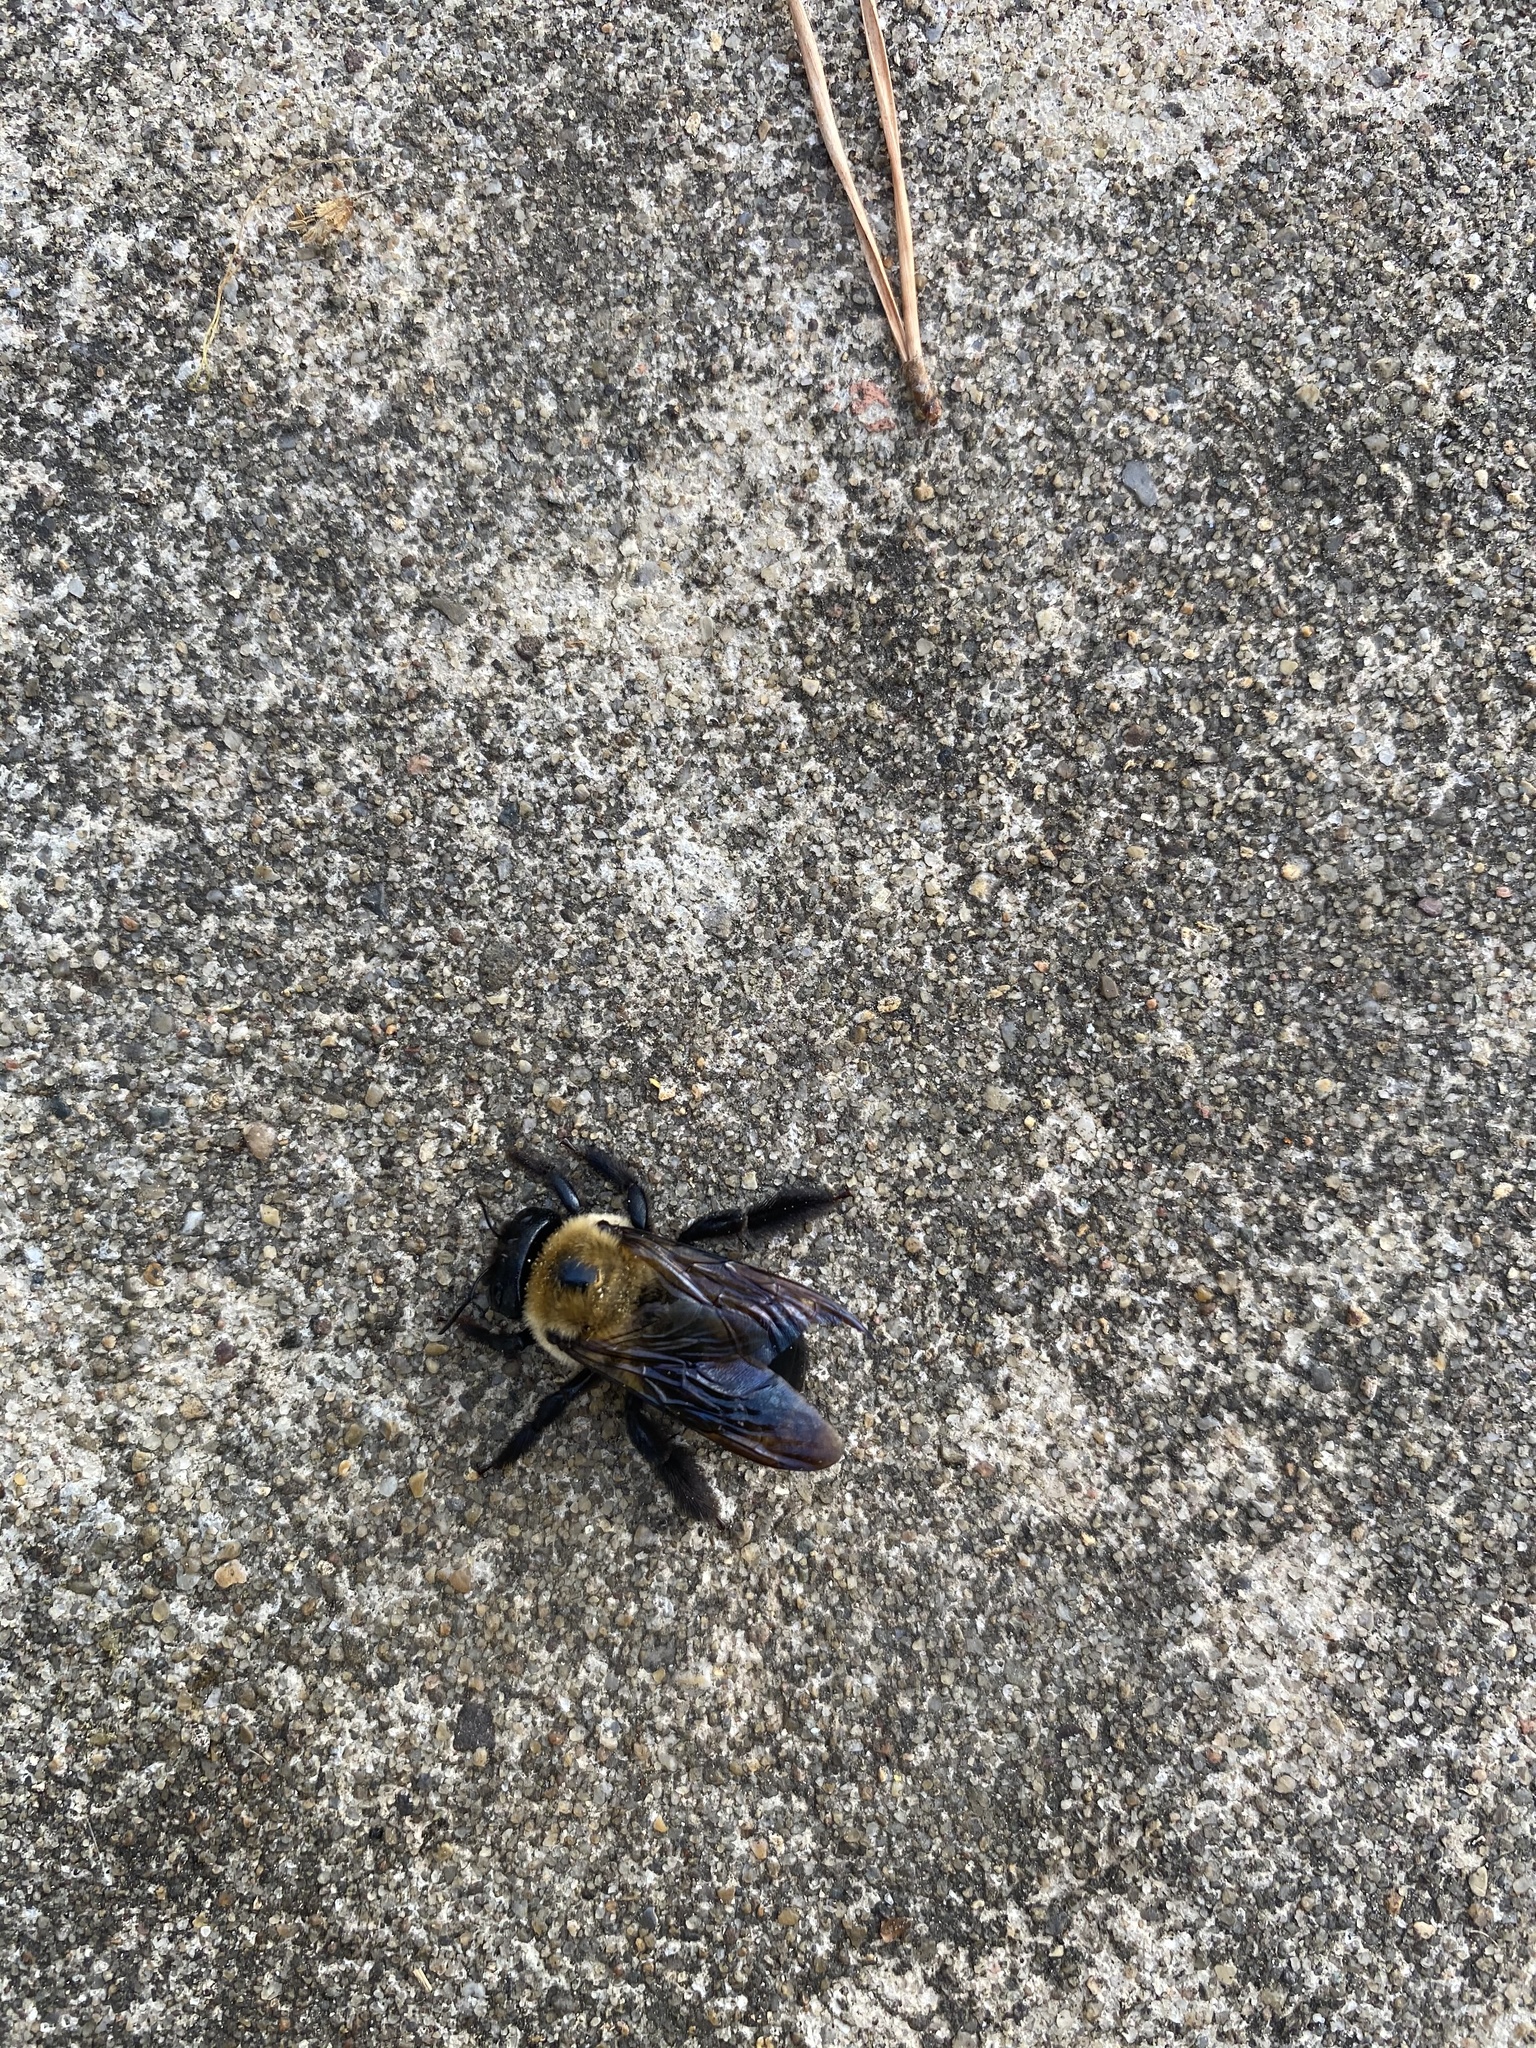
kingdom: Animalia
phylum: Arthropoda
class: Insecta
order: Hymenoptera
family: Apidae
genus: Xylocopa
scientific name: Xylocopa virginica
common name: Carpenter bee
